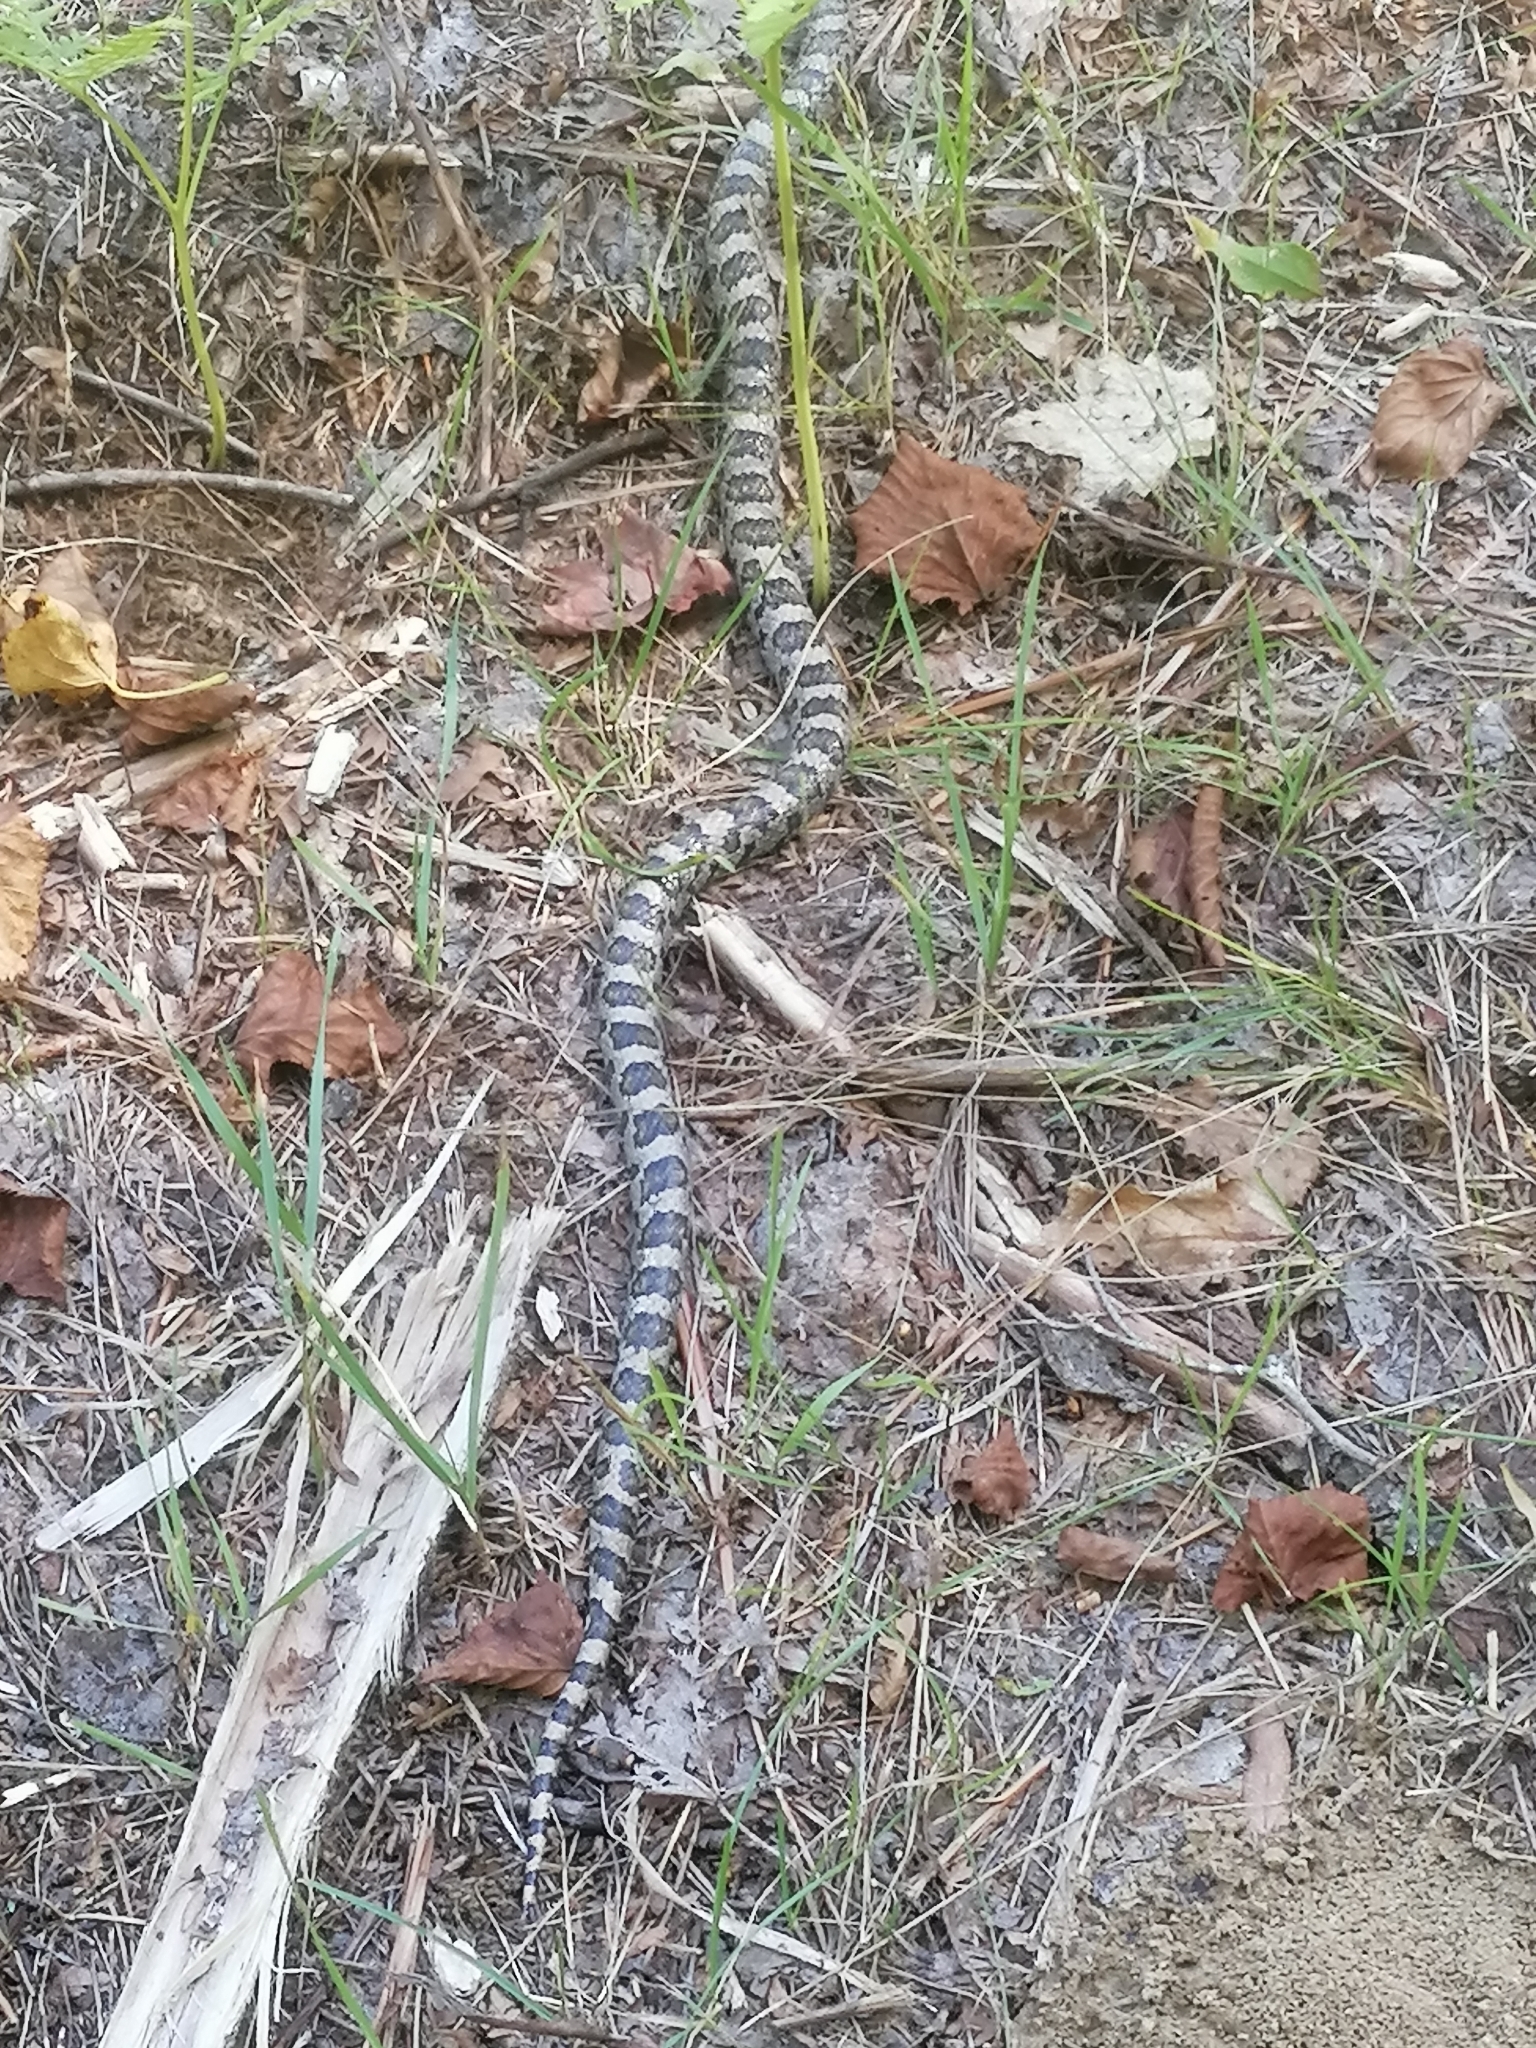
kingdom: Animalia
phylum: Chordata
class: Squamata
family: Colubridae
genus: Lampropeltis
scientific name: Lampropeltis triangulum
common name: Eastern milksnake
